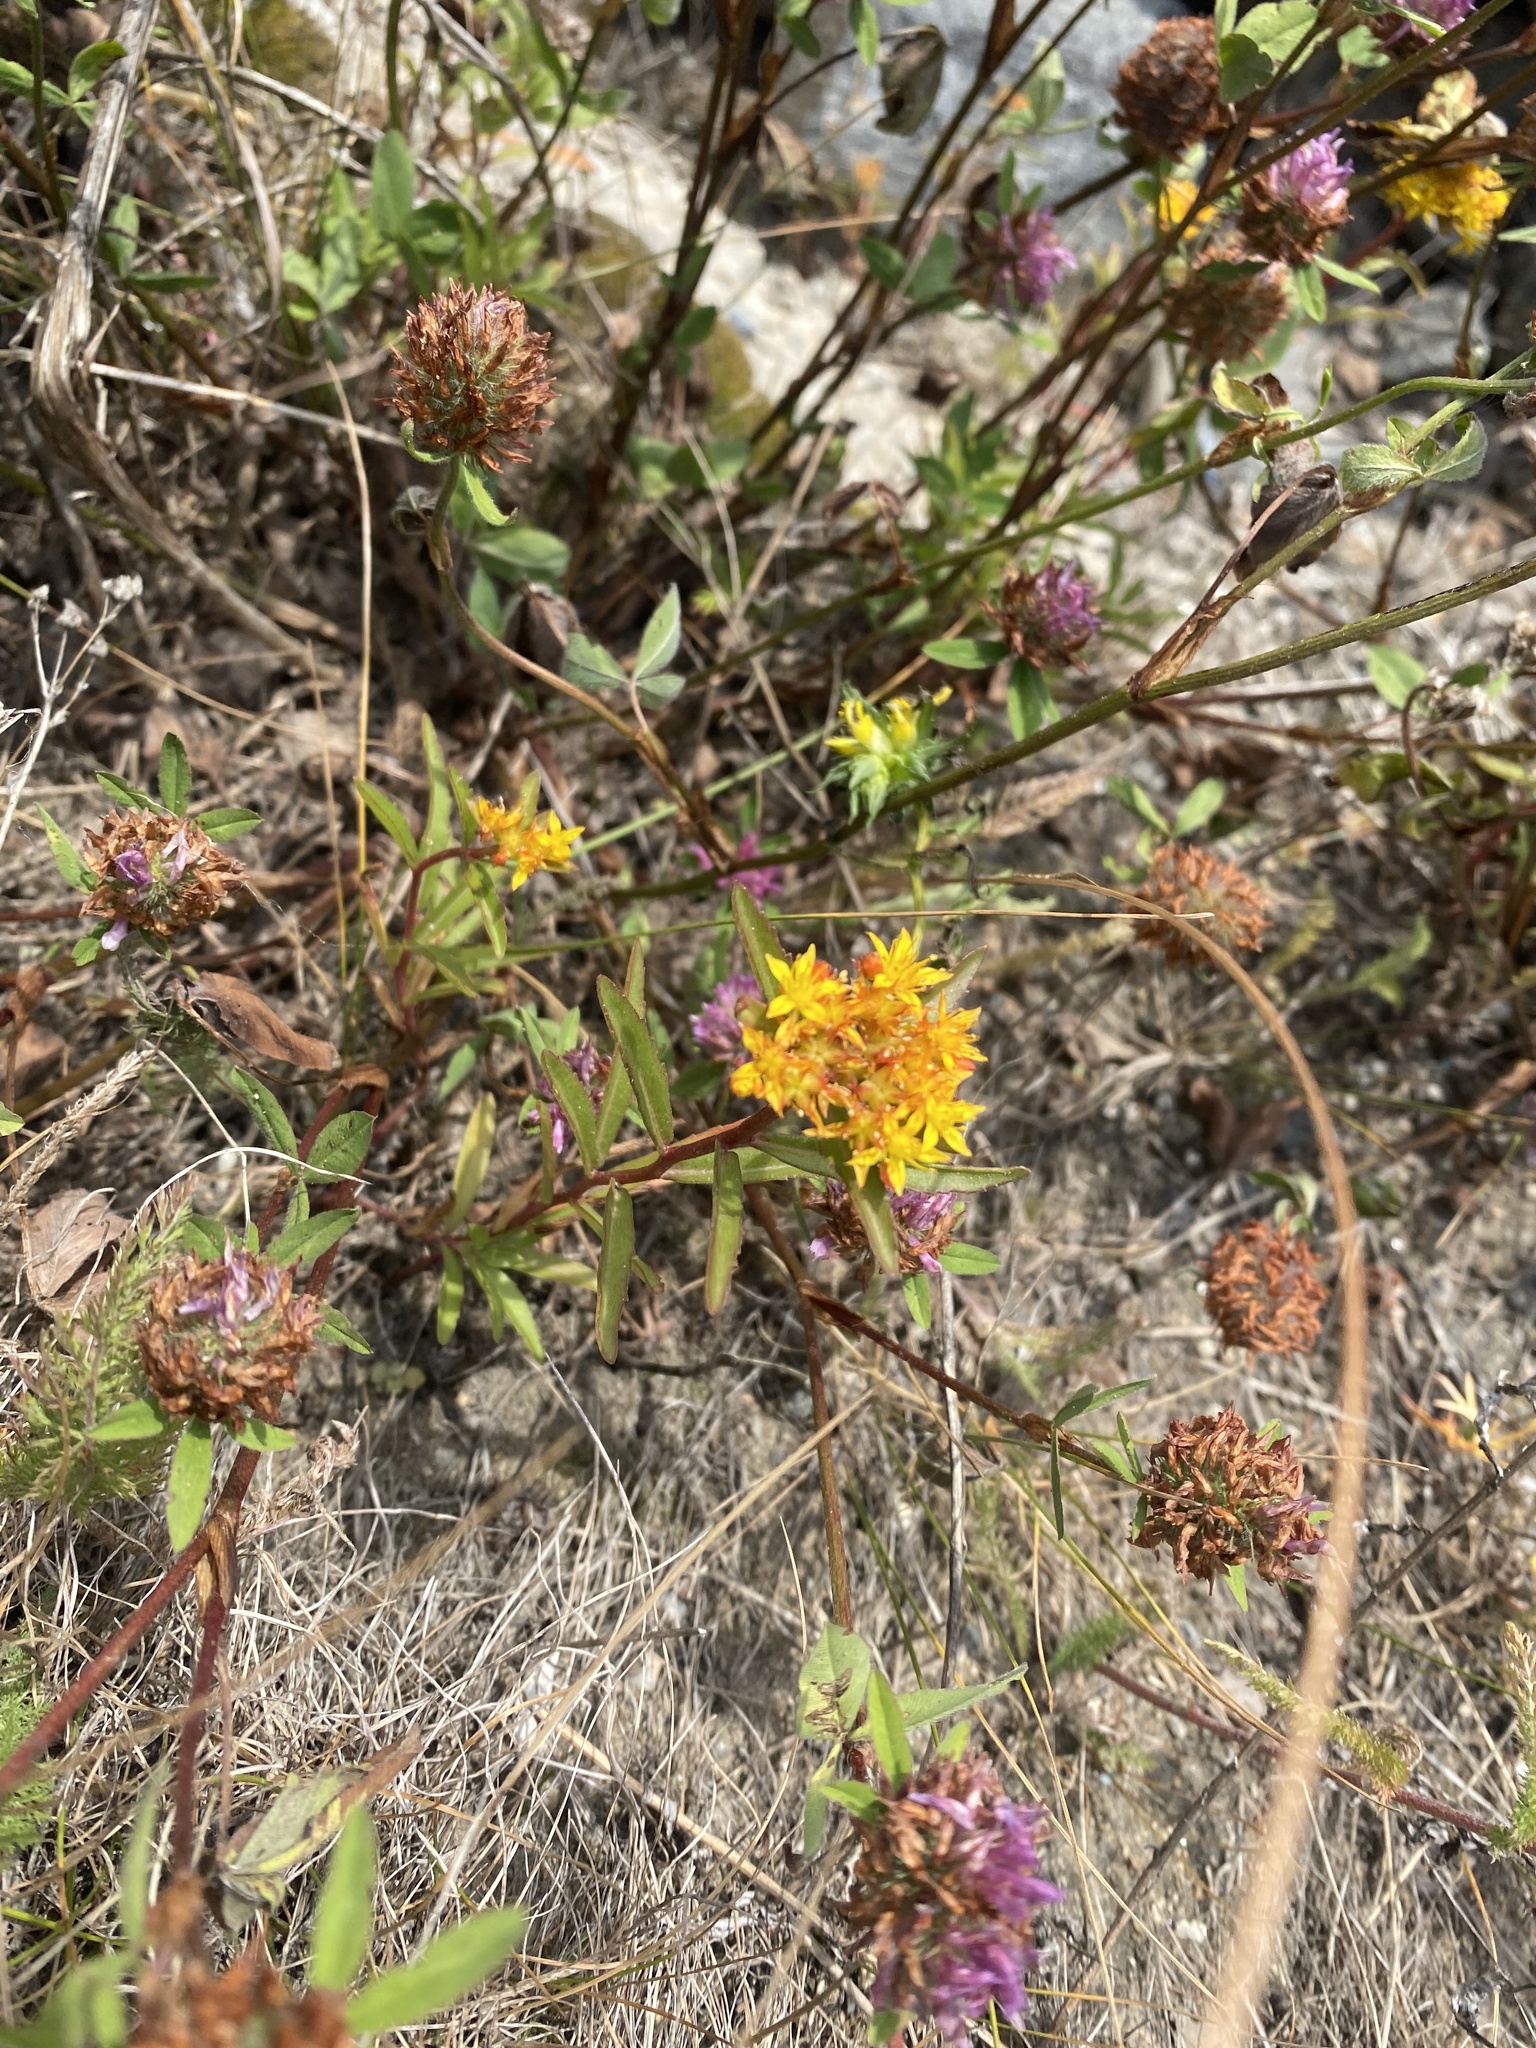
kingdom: Plantae
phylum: Tracheophyta
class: Magnoliopsida
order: Saxifragales
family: Crassulaceae
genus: Phedimus
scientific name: Phedimus aizoon
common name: Orpin aizoon
